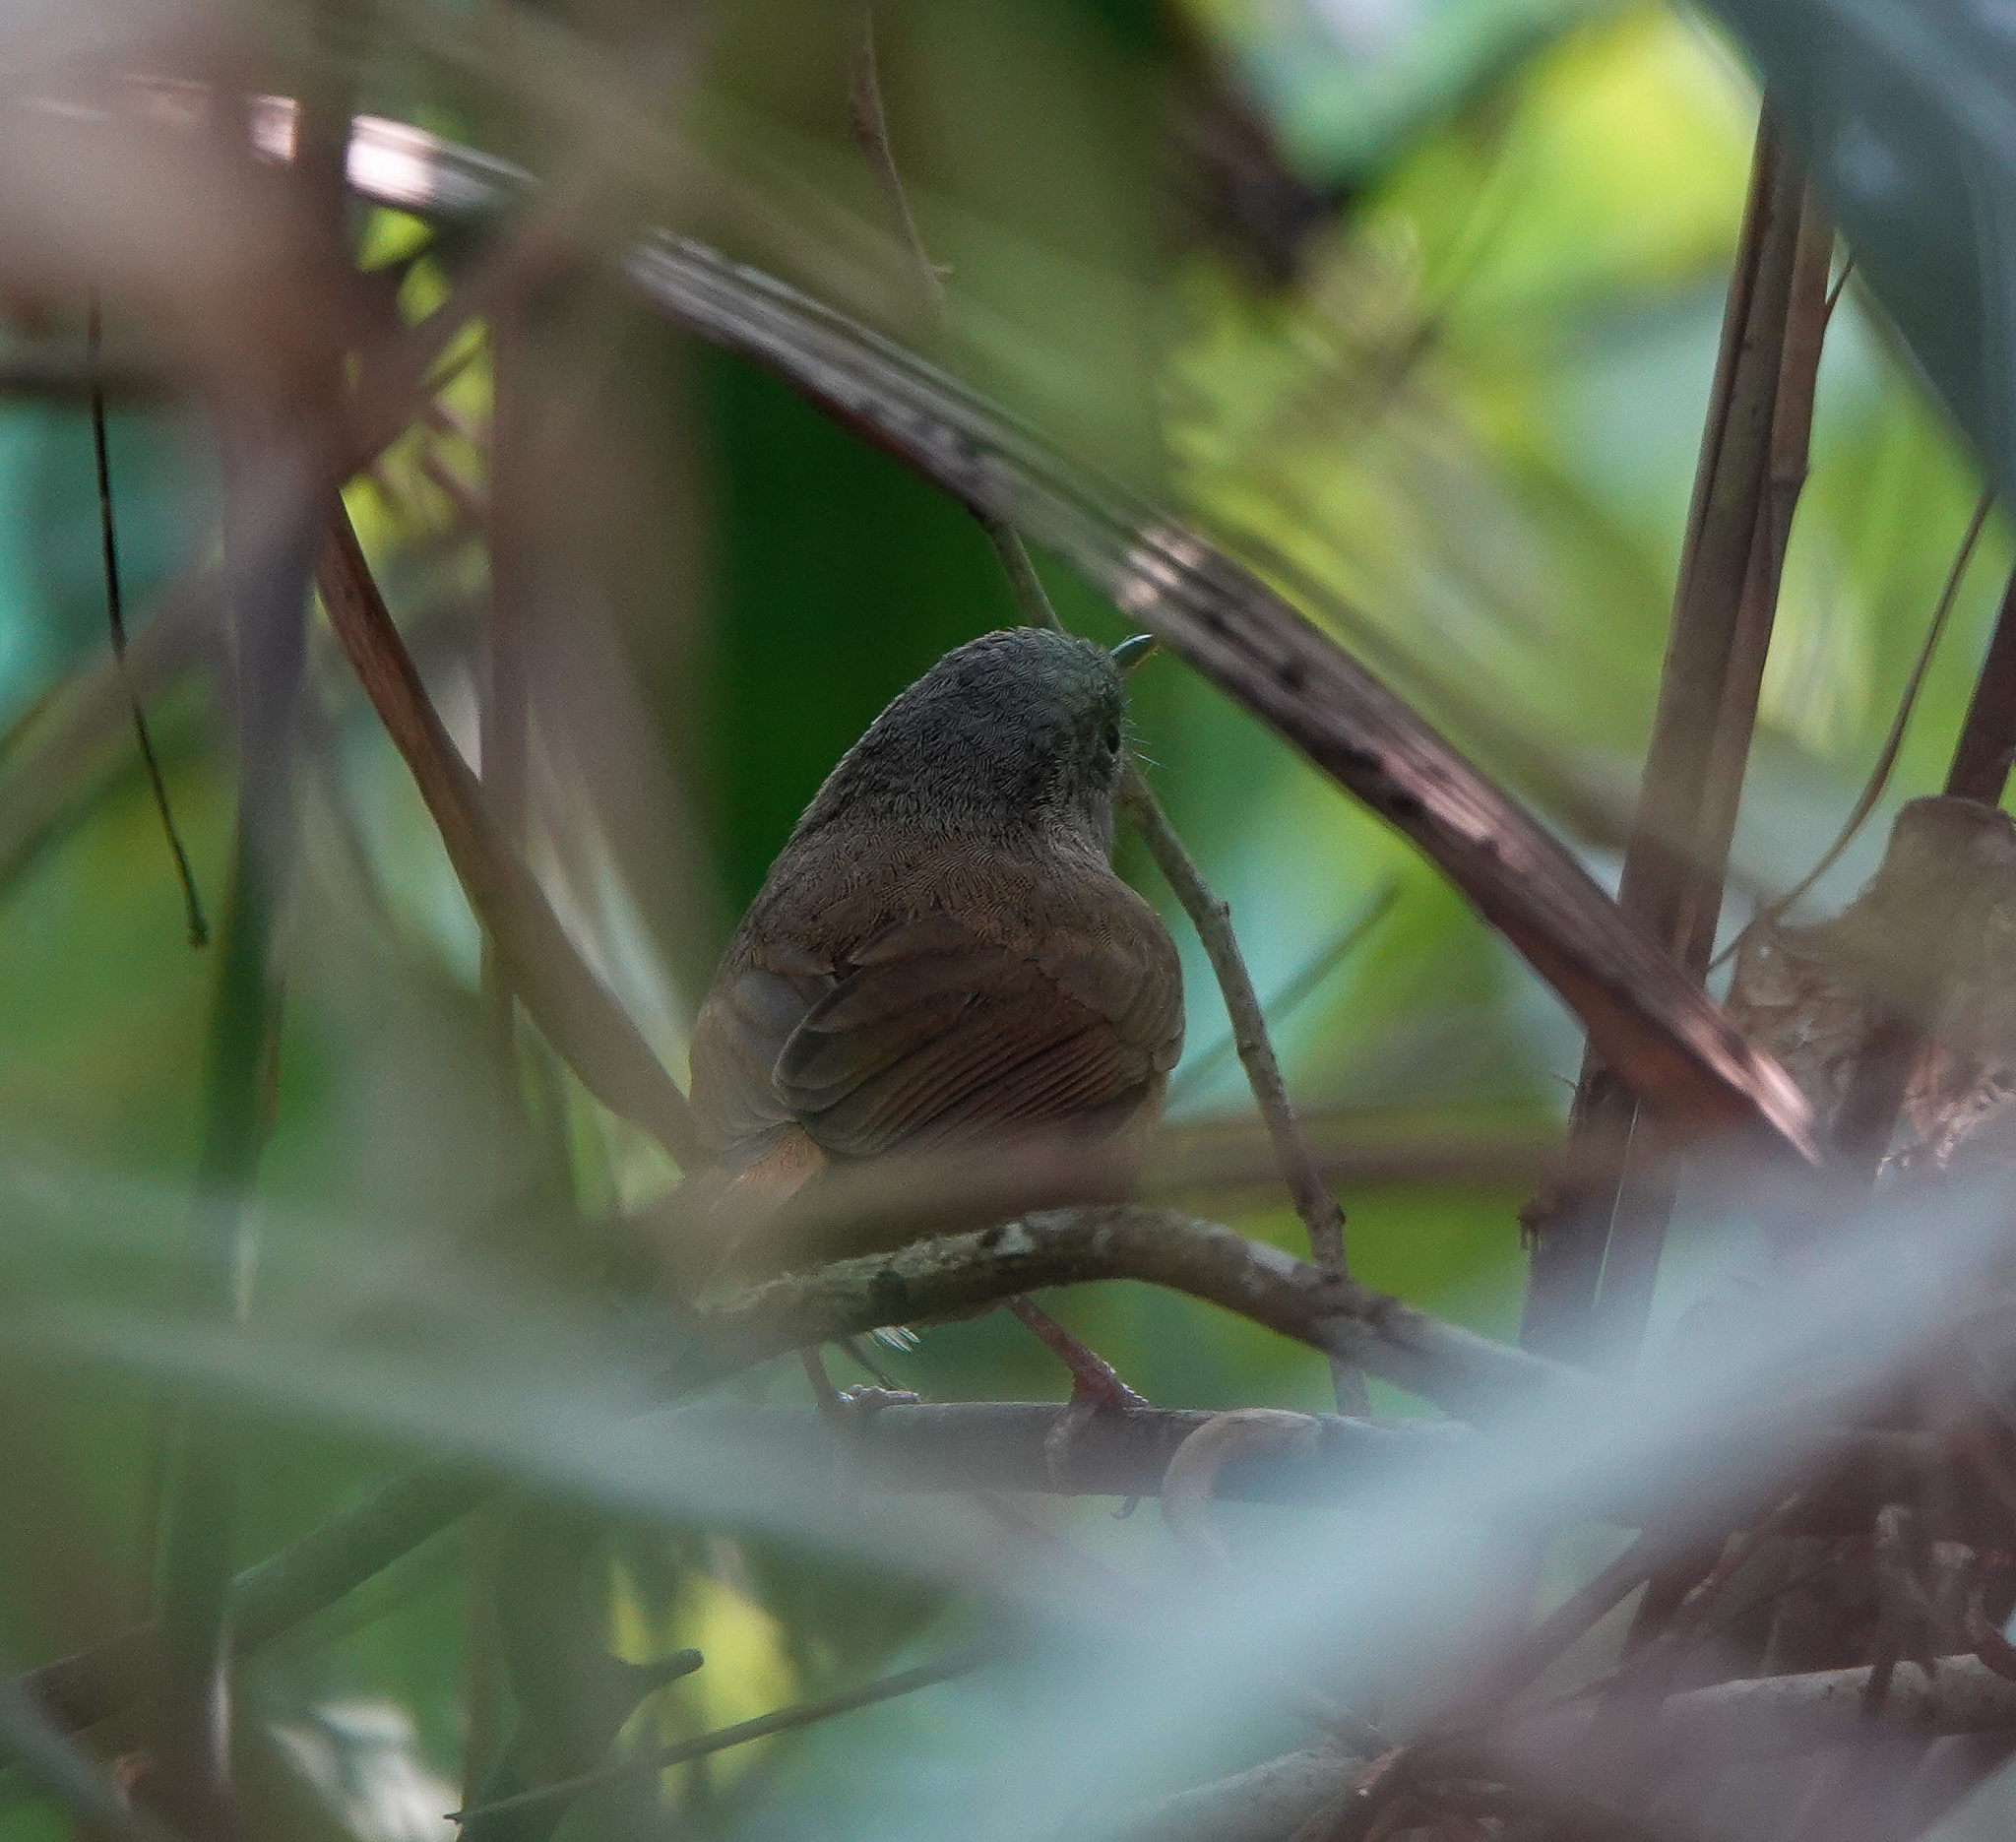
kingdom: Animalia
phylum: Chordata
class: Aves
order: Passeriformes
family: Pellorneidae
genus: Alcippe
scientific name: Alcippe poioicephala
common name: Brown-cheeked fulvetta
